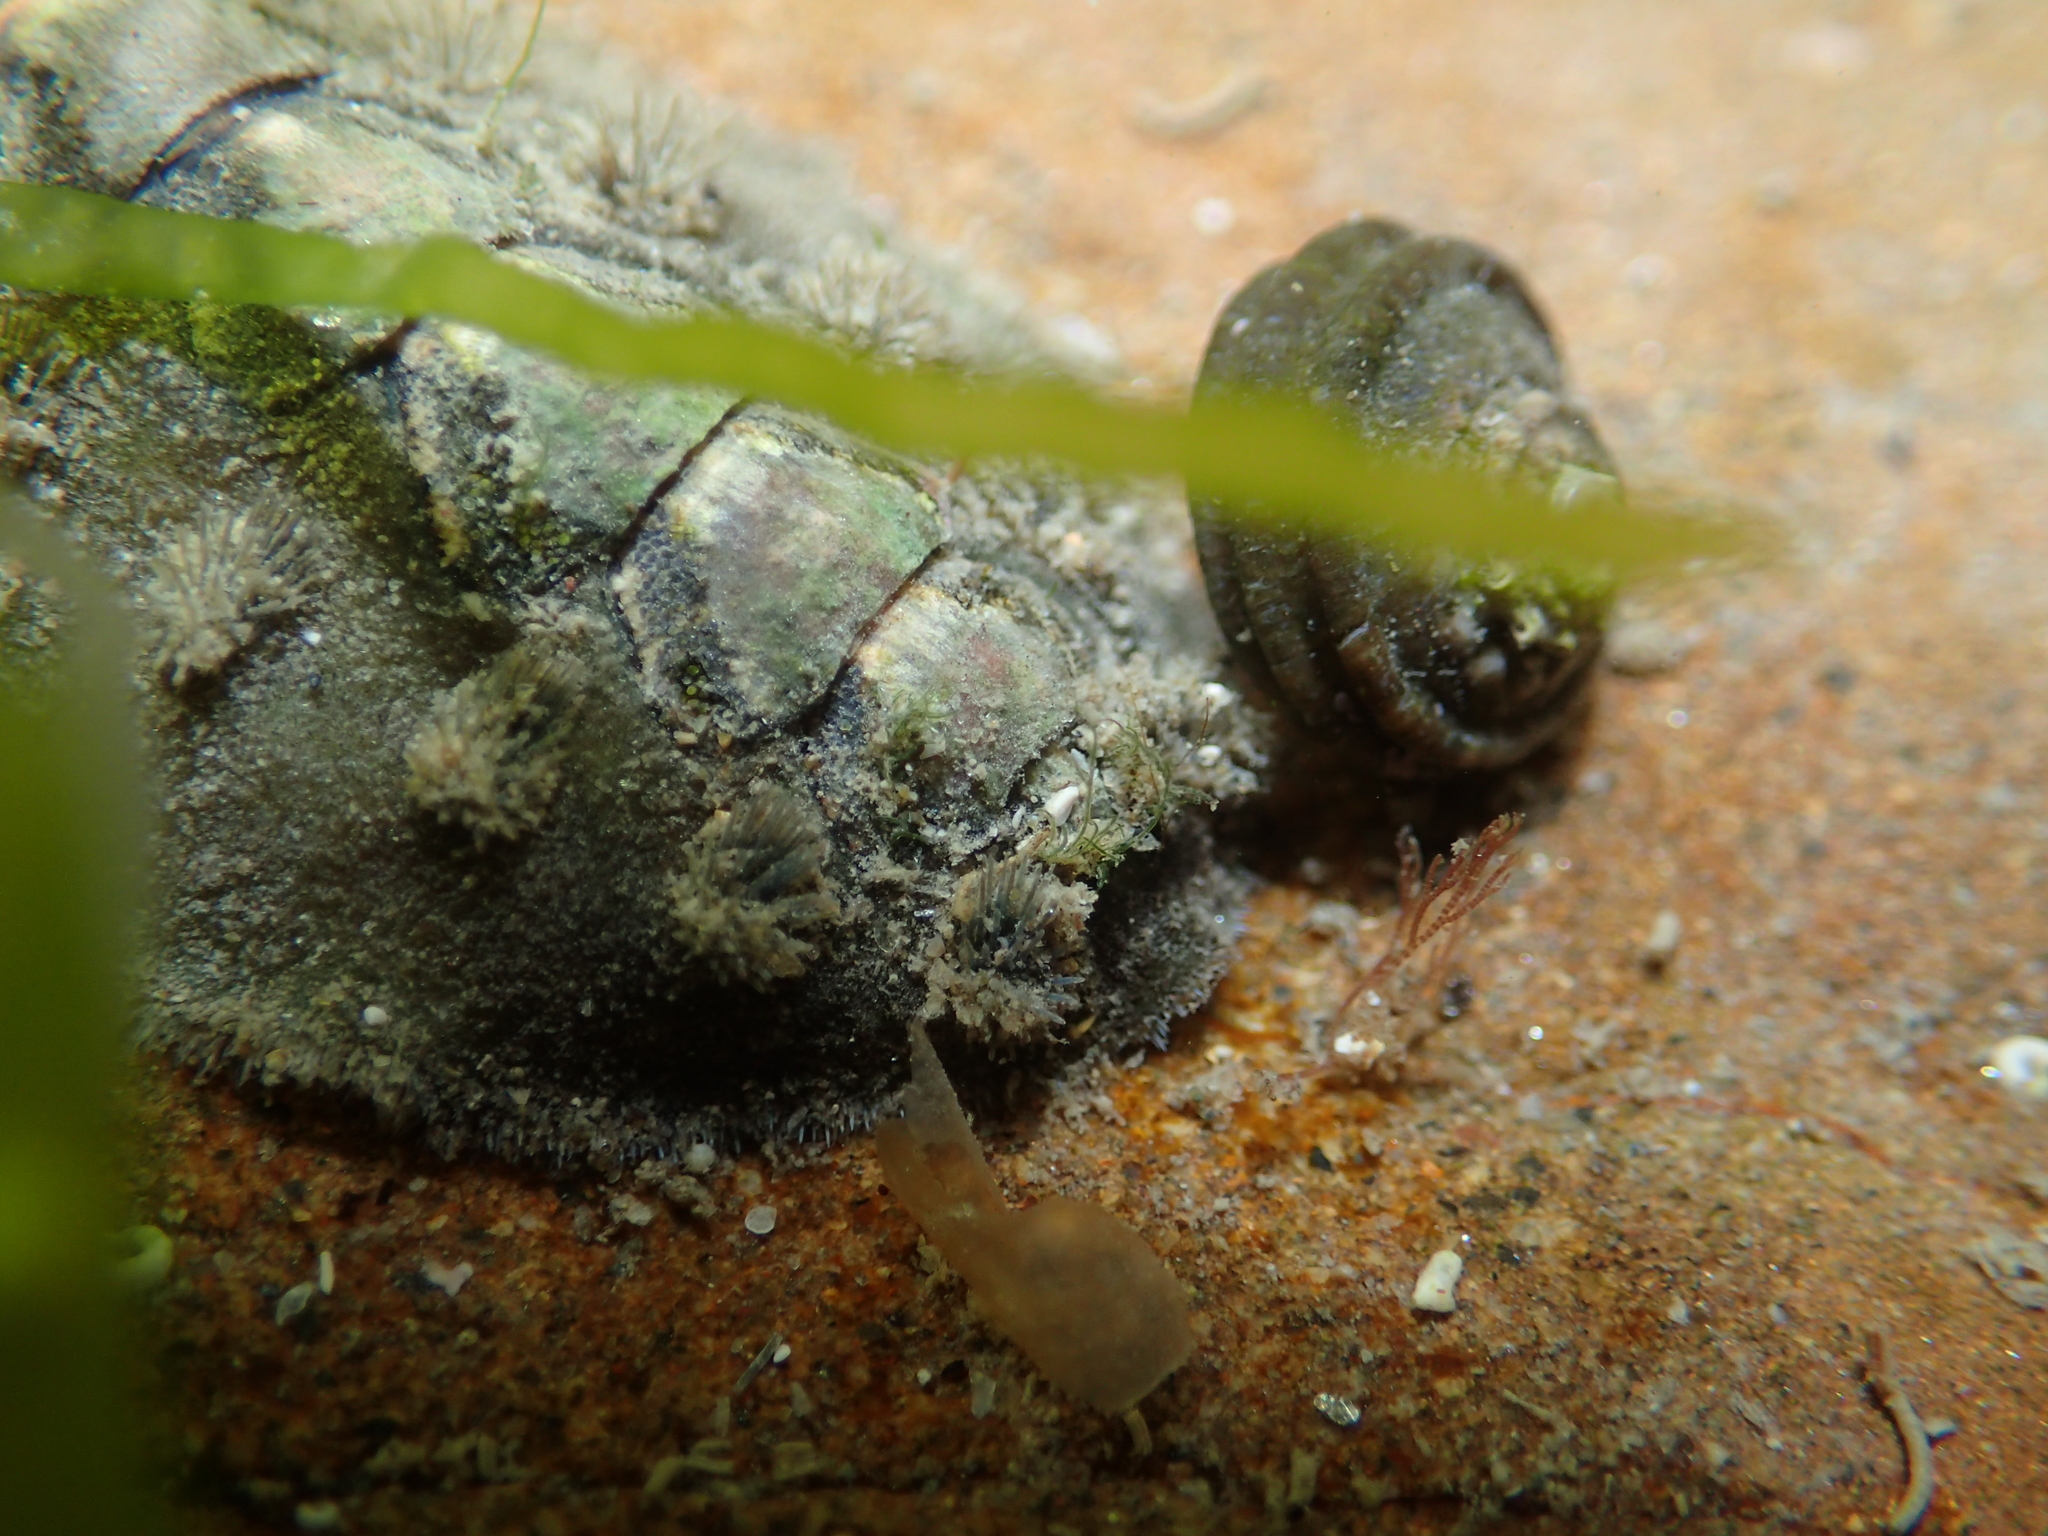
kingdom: Animalia
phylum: Mollusca
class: Polyplacophora
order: Chitonida
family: Acanthochitonidae
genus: Acanthochitona
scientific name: Acanthochitona zelandica
